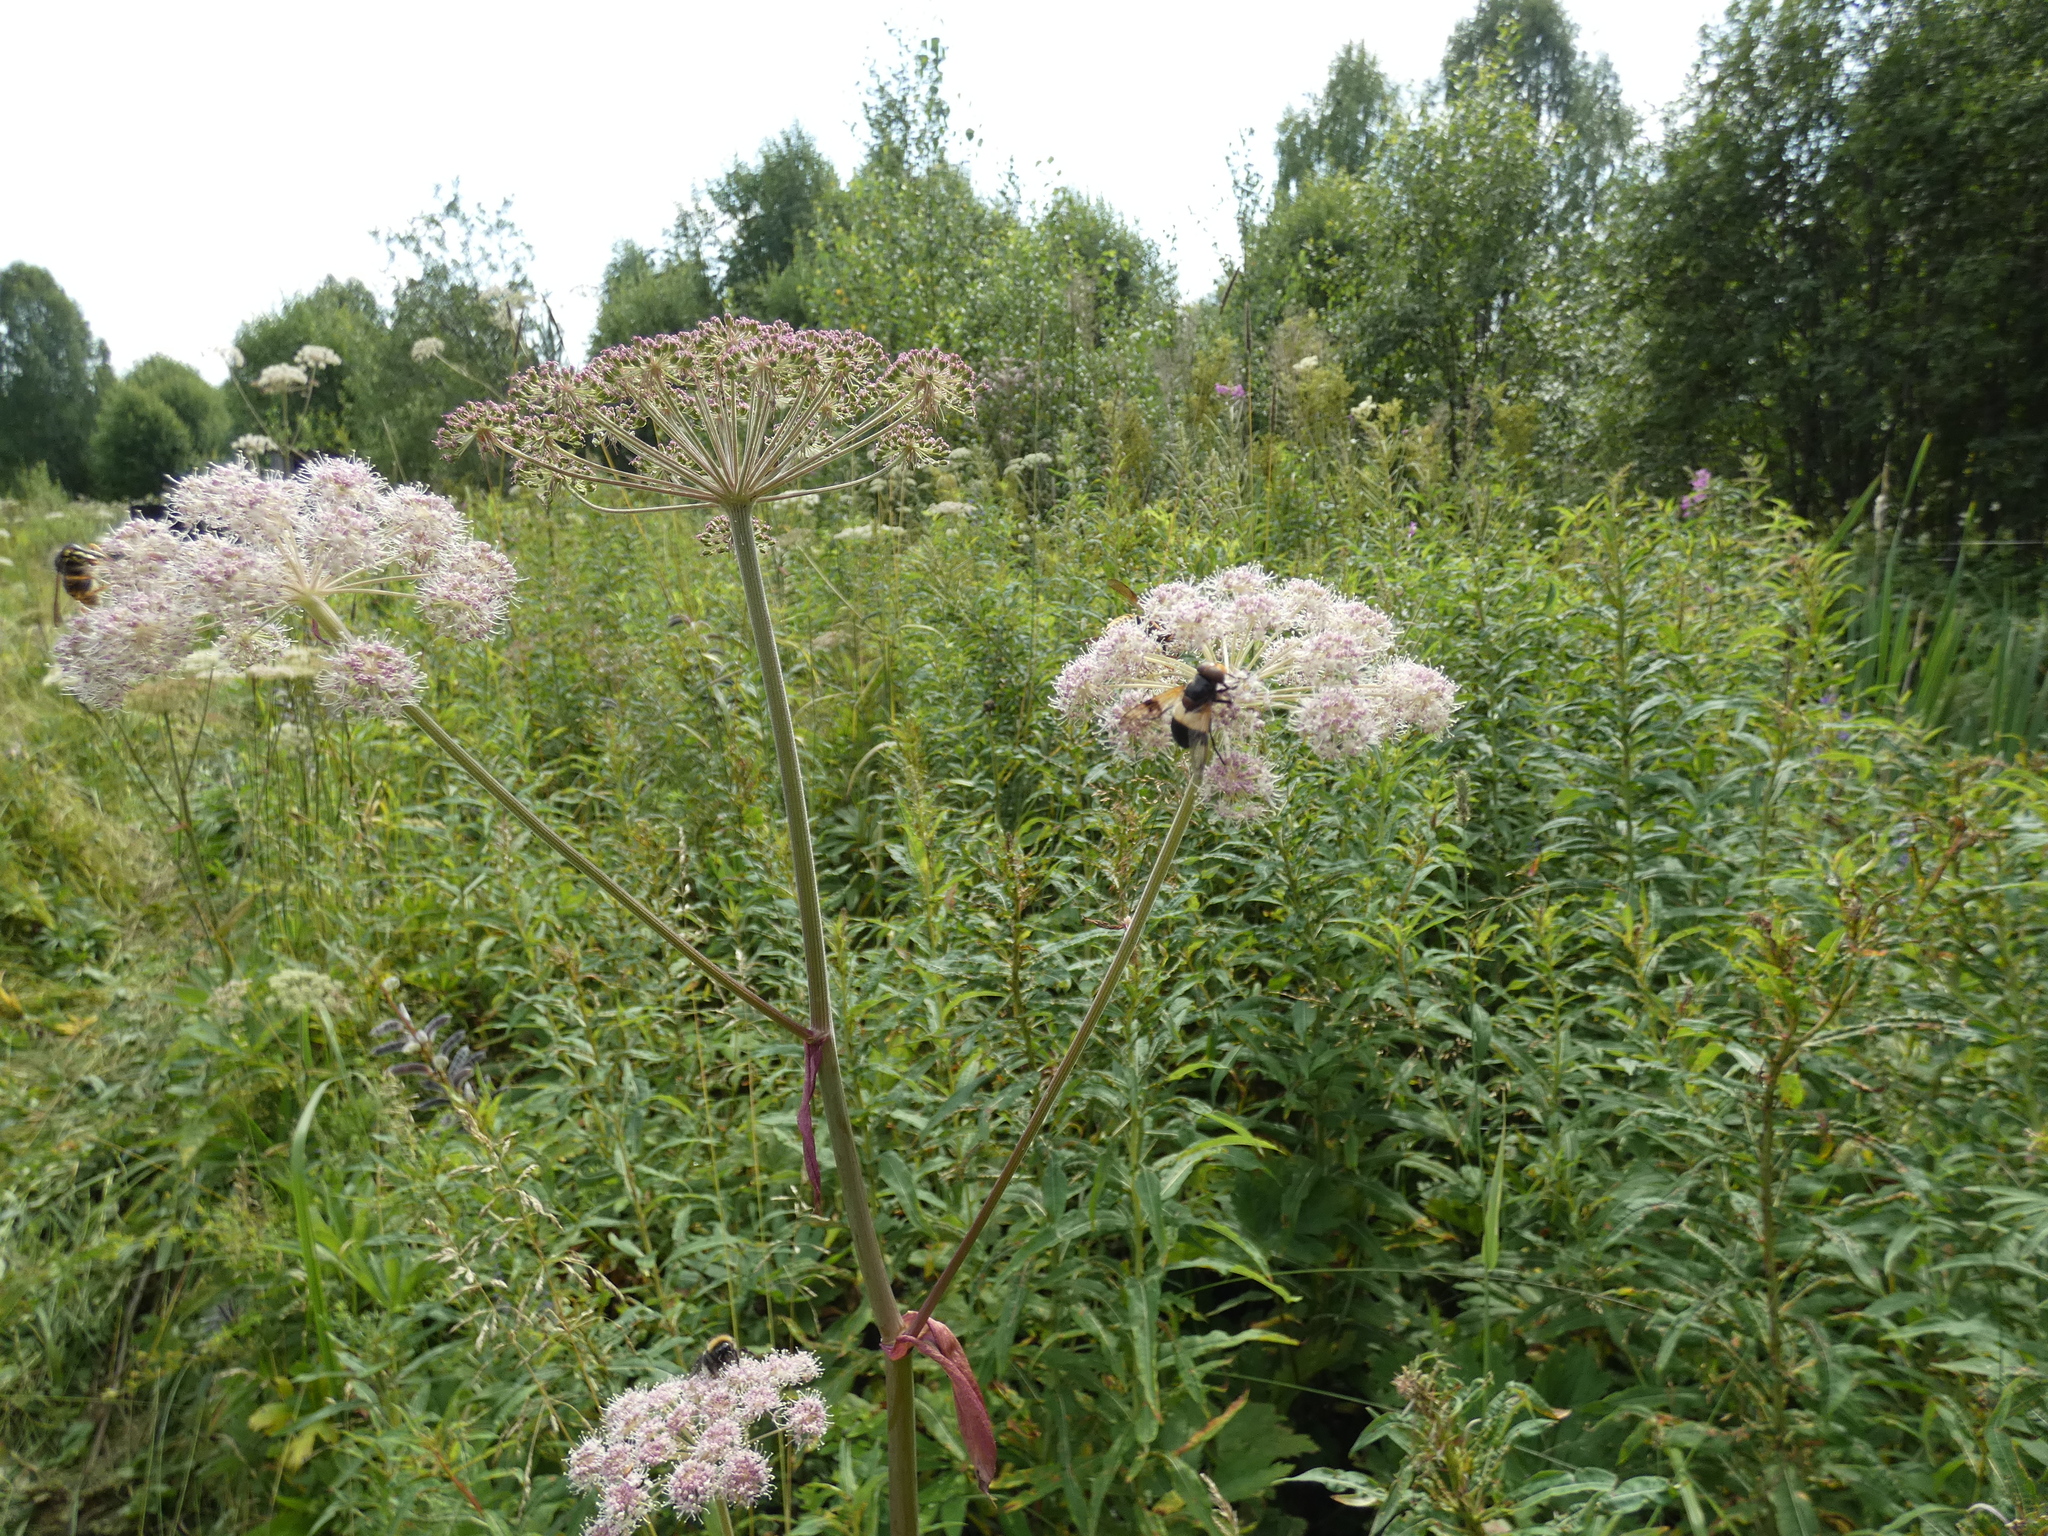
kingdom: Animalia
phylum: Arthropoda
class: Insecta
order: Diptera
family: Syrphidae
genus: Volucella
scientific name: Volucella pellucens
